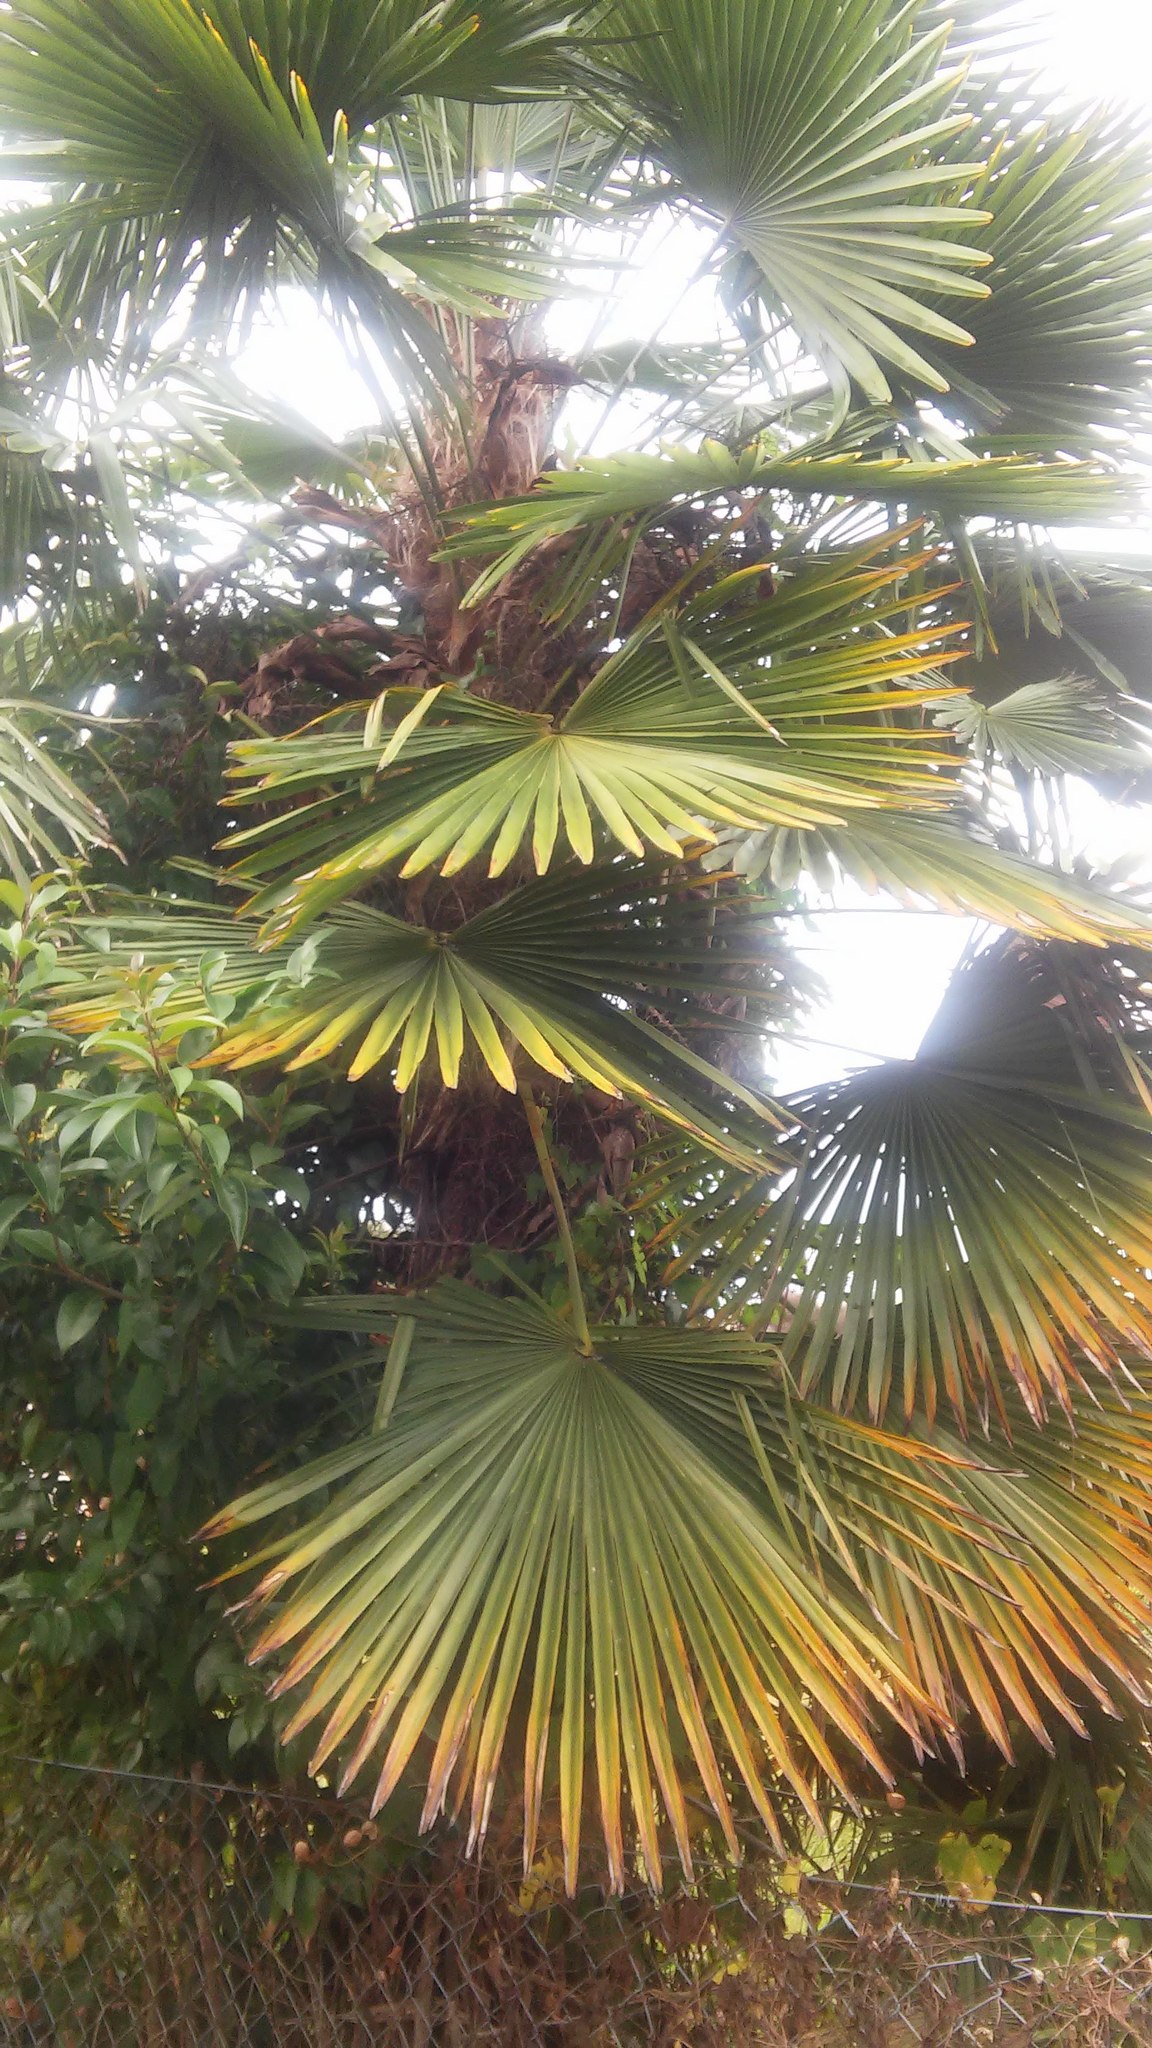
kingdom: Plantae
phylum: Tracheophyta
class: Liliopsida
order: Arecales
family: Arecaceae
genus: Trachycarpus
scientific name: Trachycarpus fortunei
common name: Chusan palm
